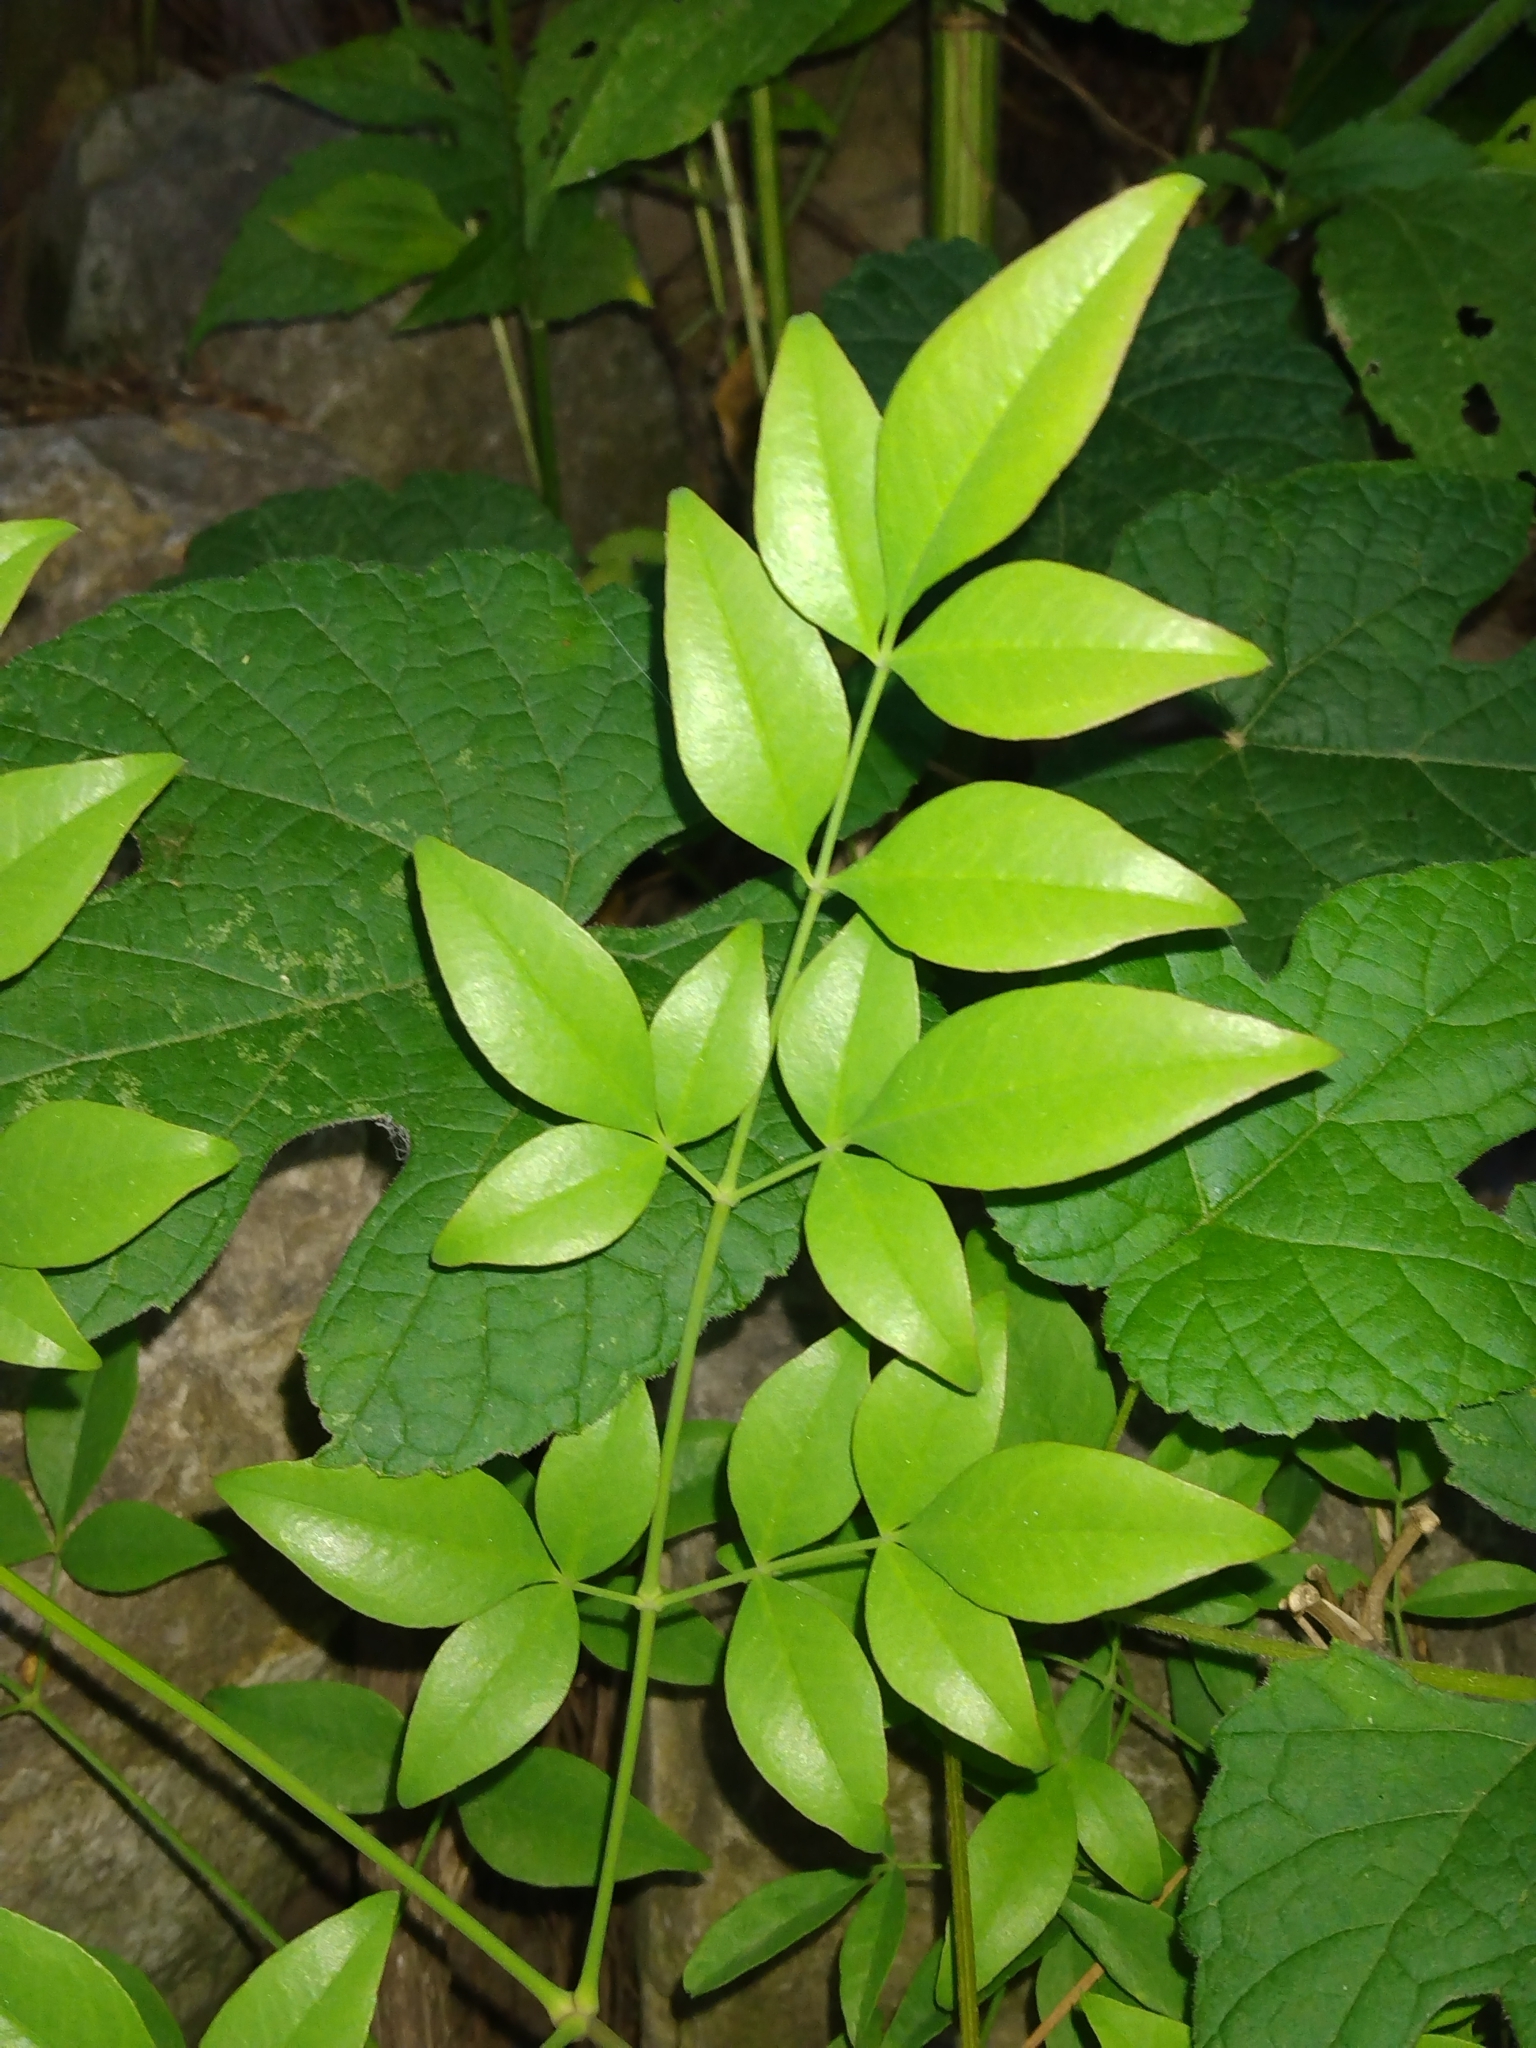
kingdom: Plantae
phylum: Tracheophyta
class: Magnoliopsida
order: Ranunculales
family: Berberidaceae
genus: Nandina
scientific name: Nandina domestica
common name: Sacred bamboo
